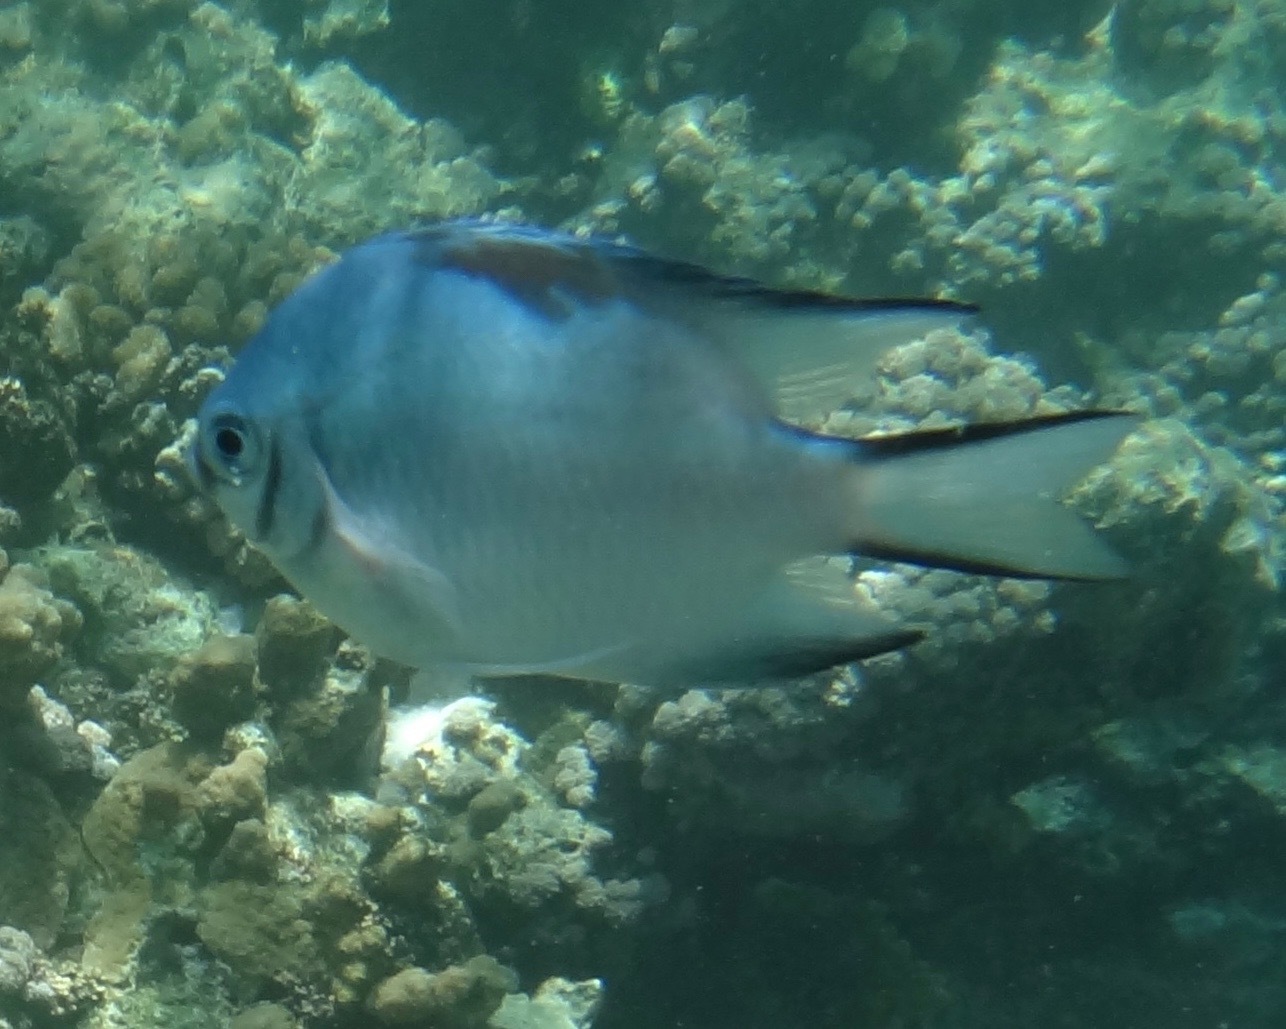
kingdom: Animalia
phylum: Chordata
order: Perciformes
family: Pomacentridae
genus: Amblyglyphidodon
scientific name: Amblyglyphidodon indicus
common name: Maldives damselfish
